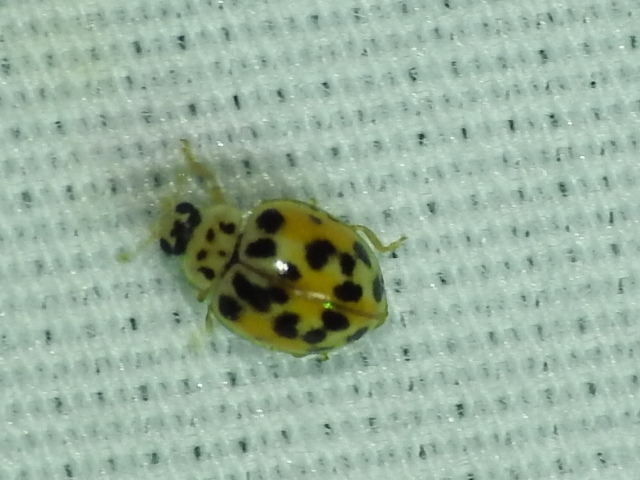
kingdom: Animalia
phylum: Arthropoda
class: Insecta
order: Coleoptera
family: Coccinellidae
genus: Psyllobora
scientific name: Psyllobora vigintimaculata
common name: Ladybird beetle
